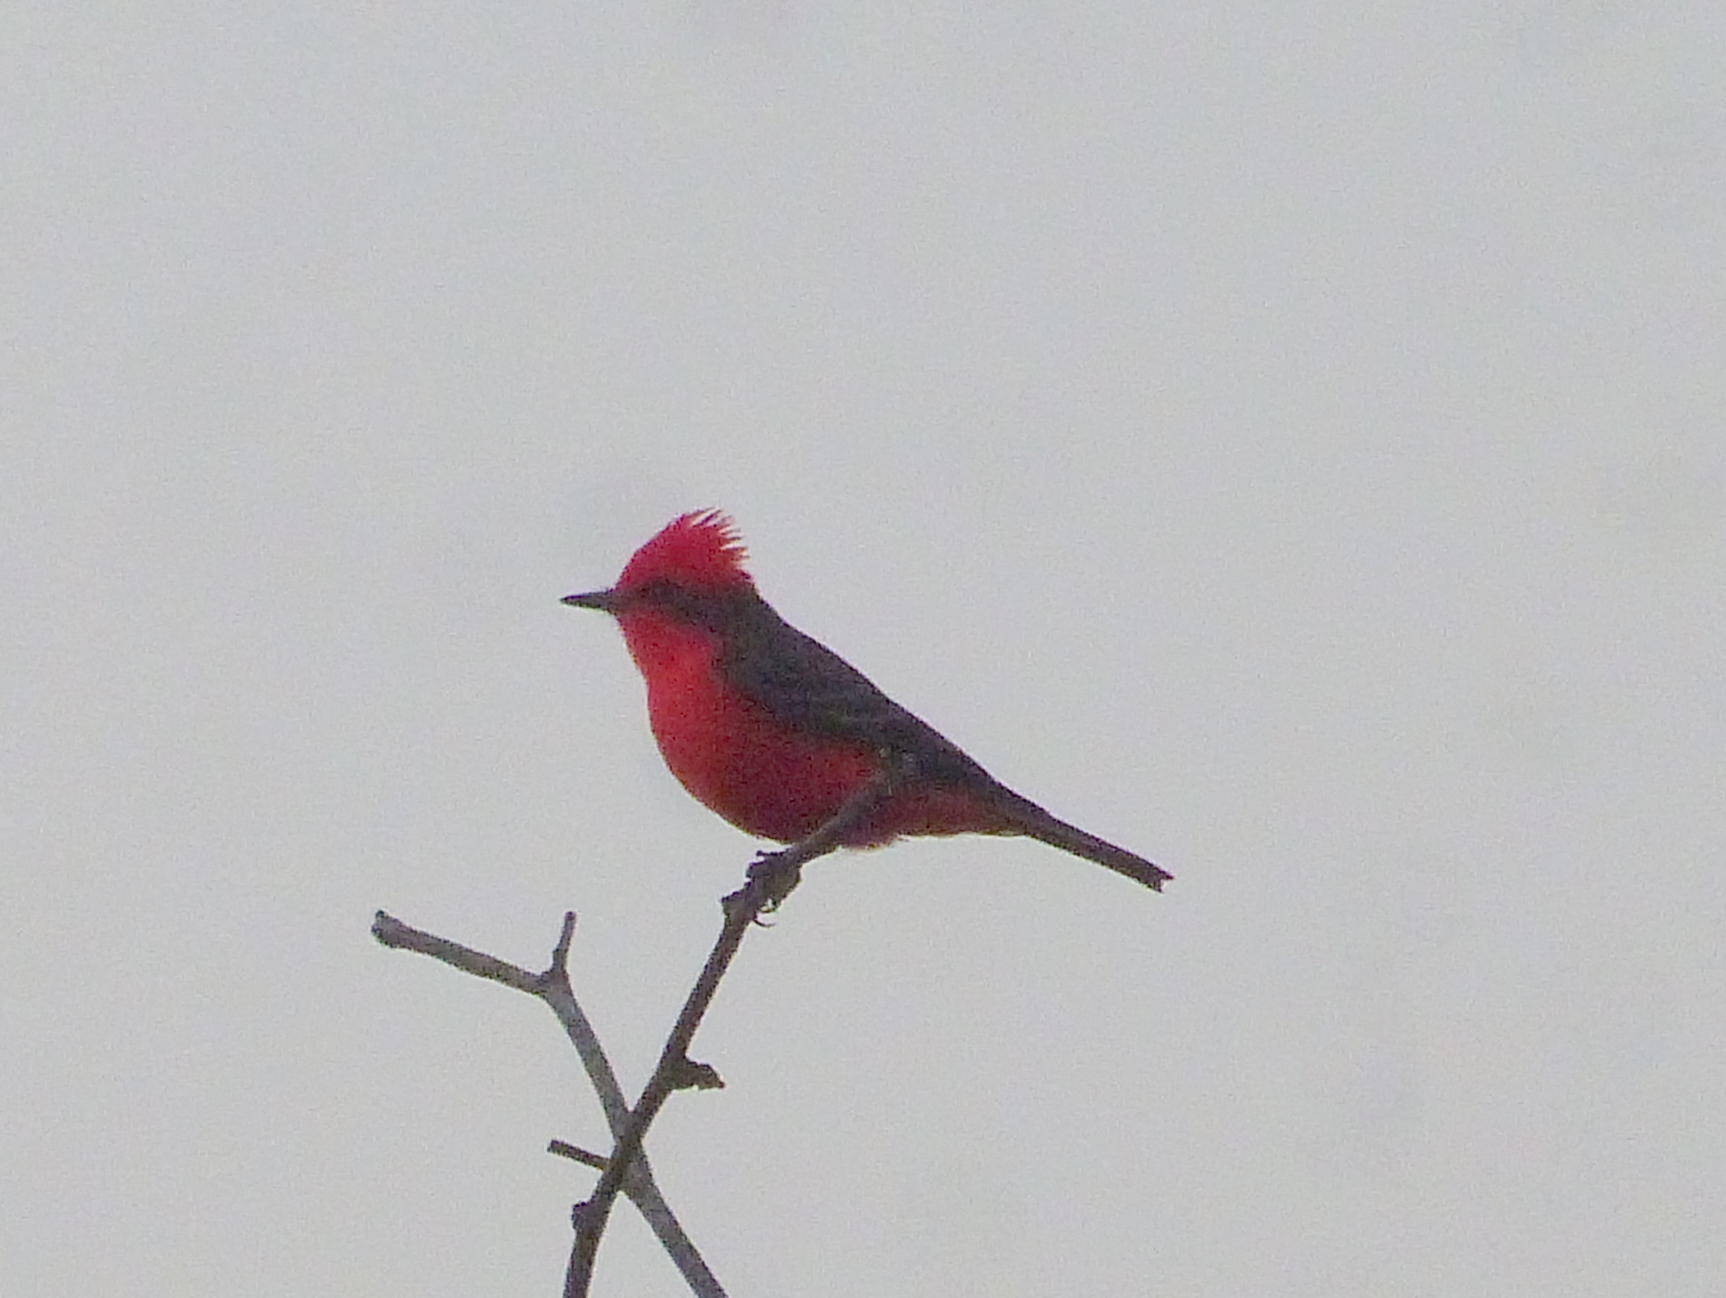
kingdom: Animalia
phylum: Chordata
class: Aves
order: Passeriformes
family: Tyrannidae
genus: Pyrocephalus
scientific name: Pyrocephalus rubinus
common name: Vermilion flycatcher
